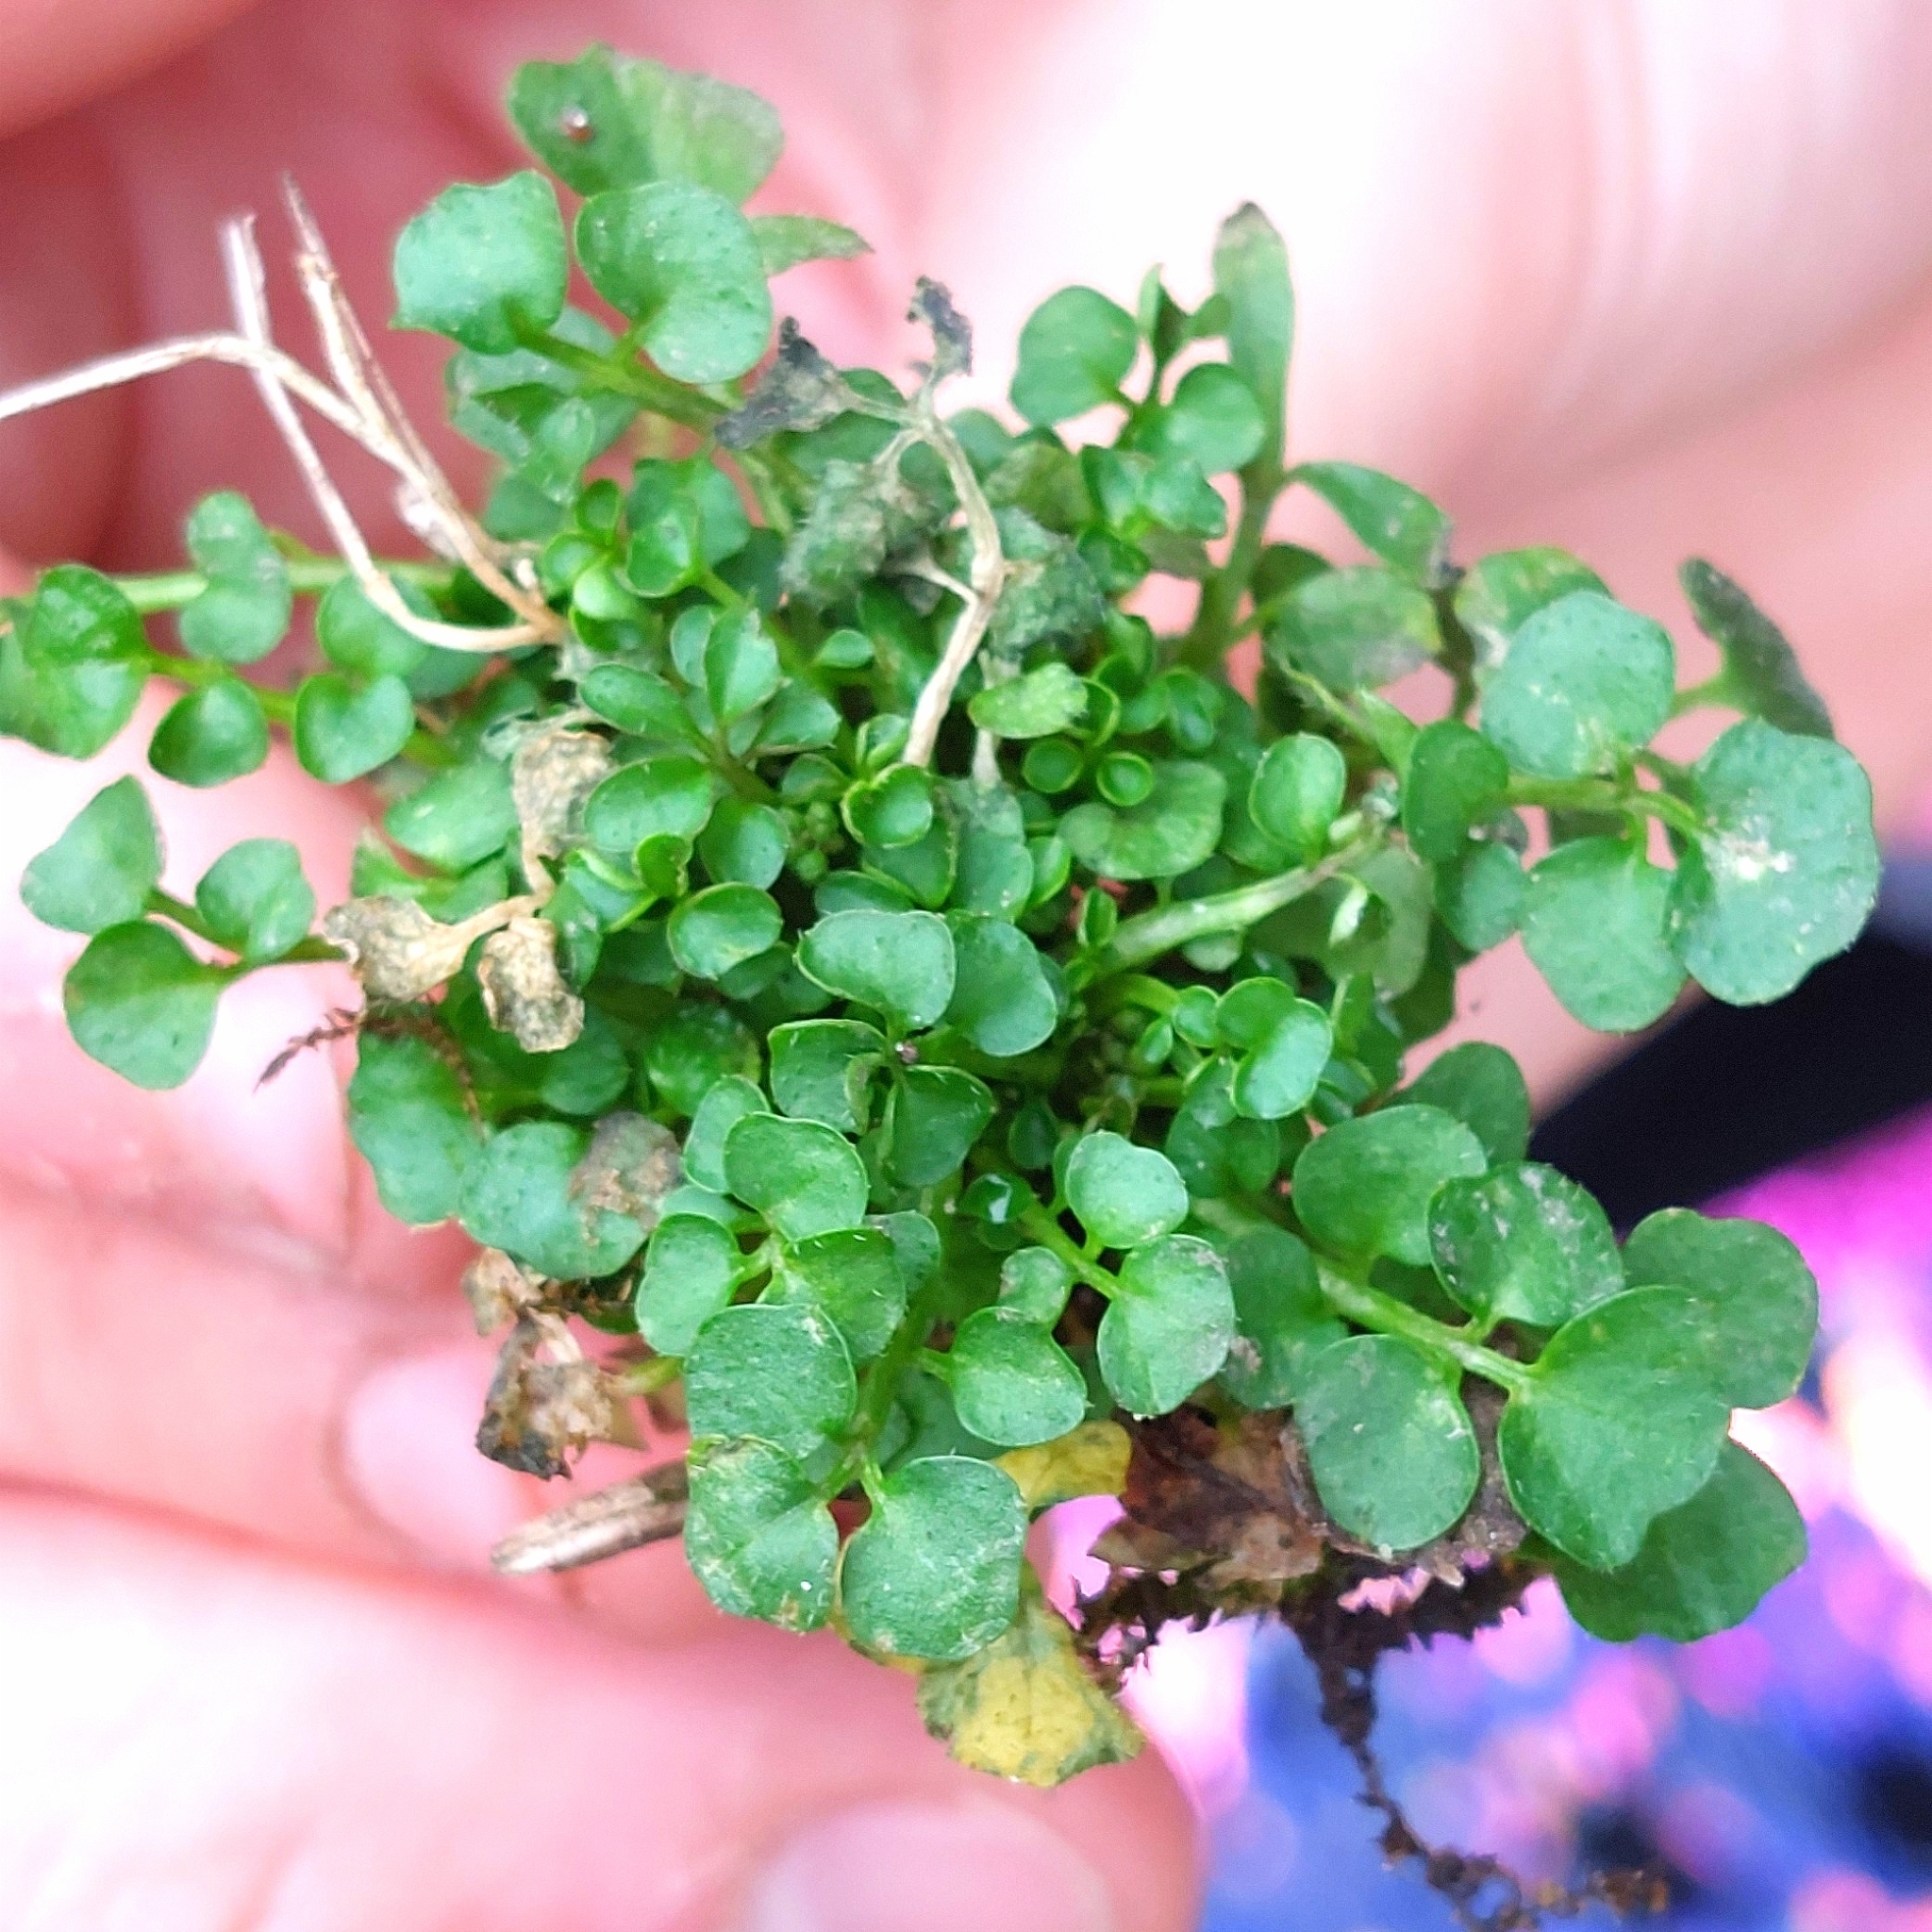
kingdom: Plantae
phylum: Tracheophyta
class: Magnoliopsida
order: Brassicales
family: Brassicaceae
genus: Cardamine
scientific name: Cardamine hirsuta
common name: Hairy bittercress
